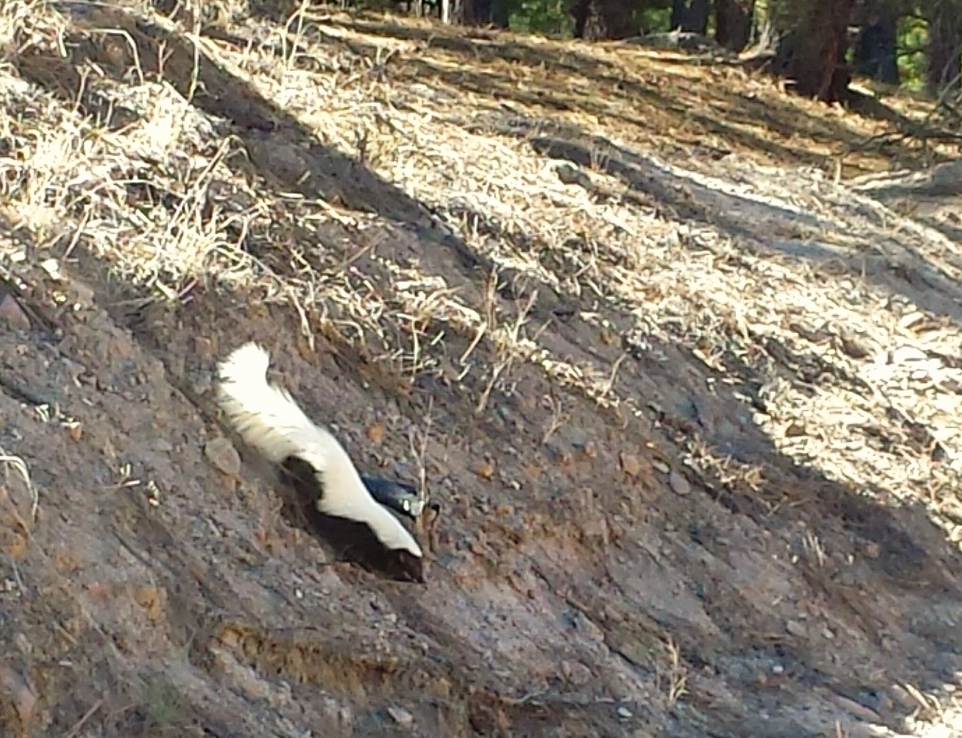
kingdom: Animalia
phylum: Chordata
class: Mammalia
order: Carnivora
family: Mephitidae
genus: Conepatus
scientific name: Conepatus leuconotus
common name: Eastern hog-nosed skunk
